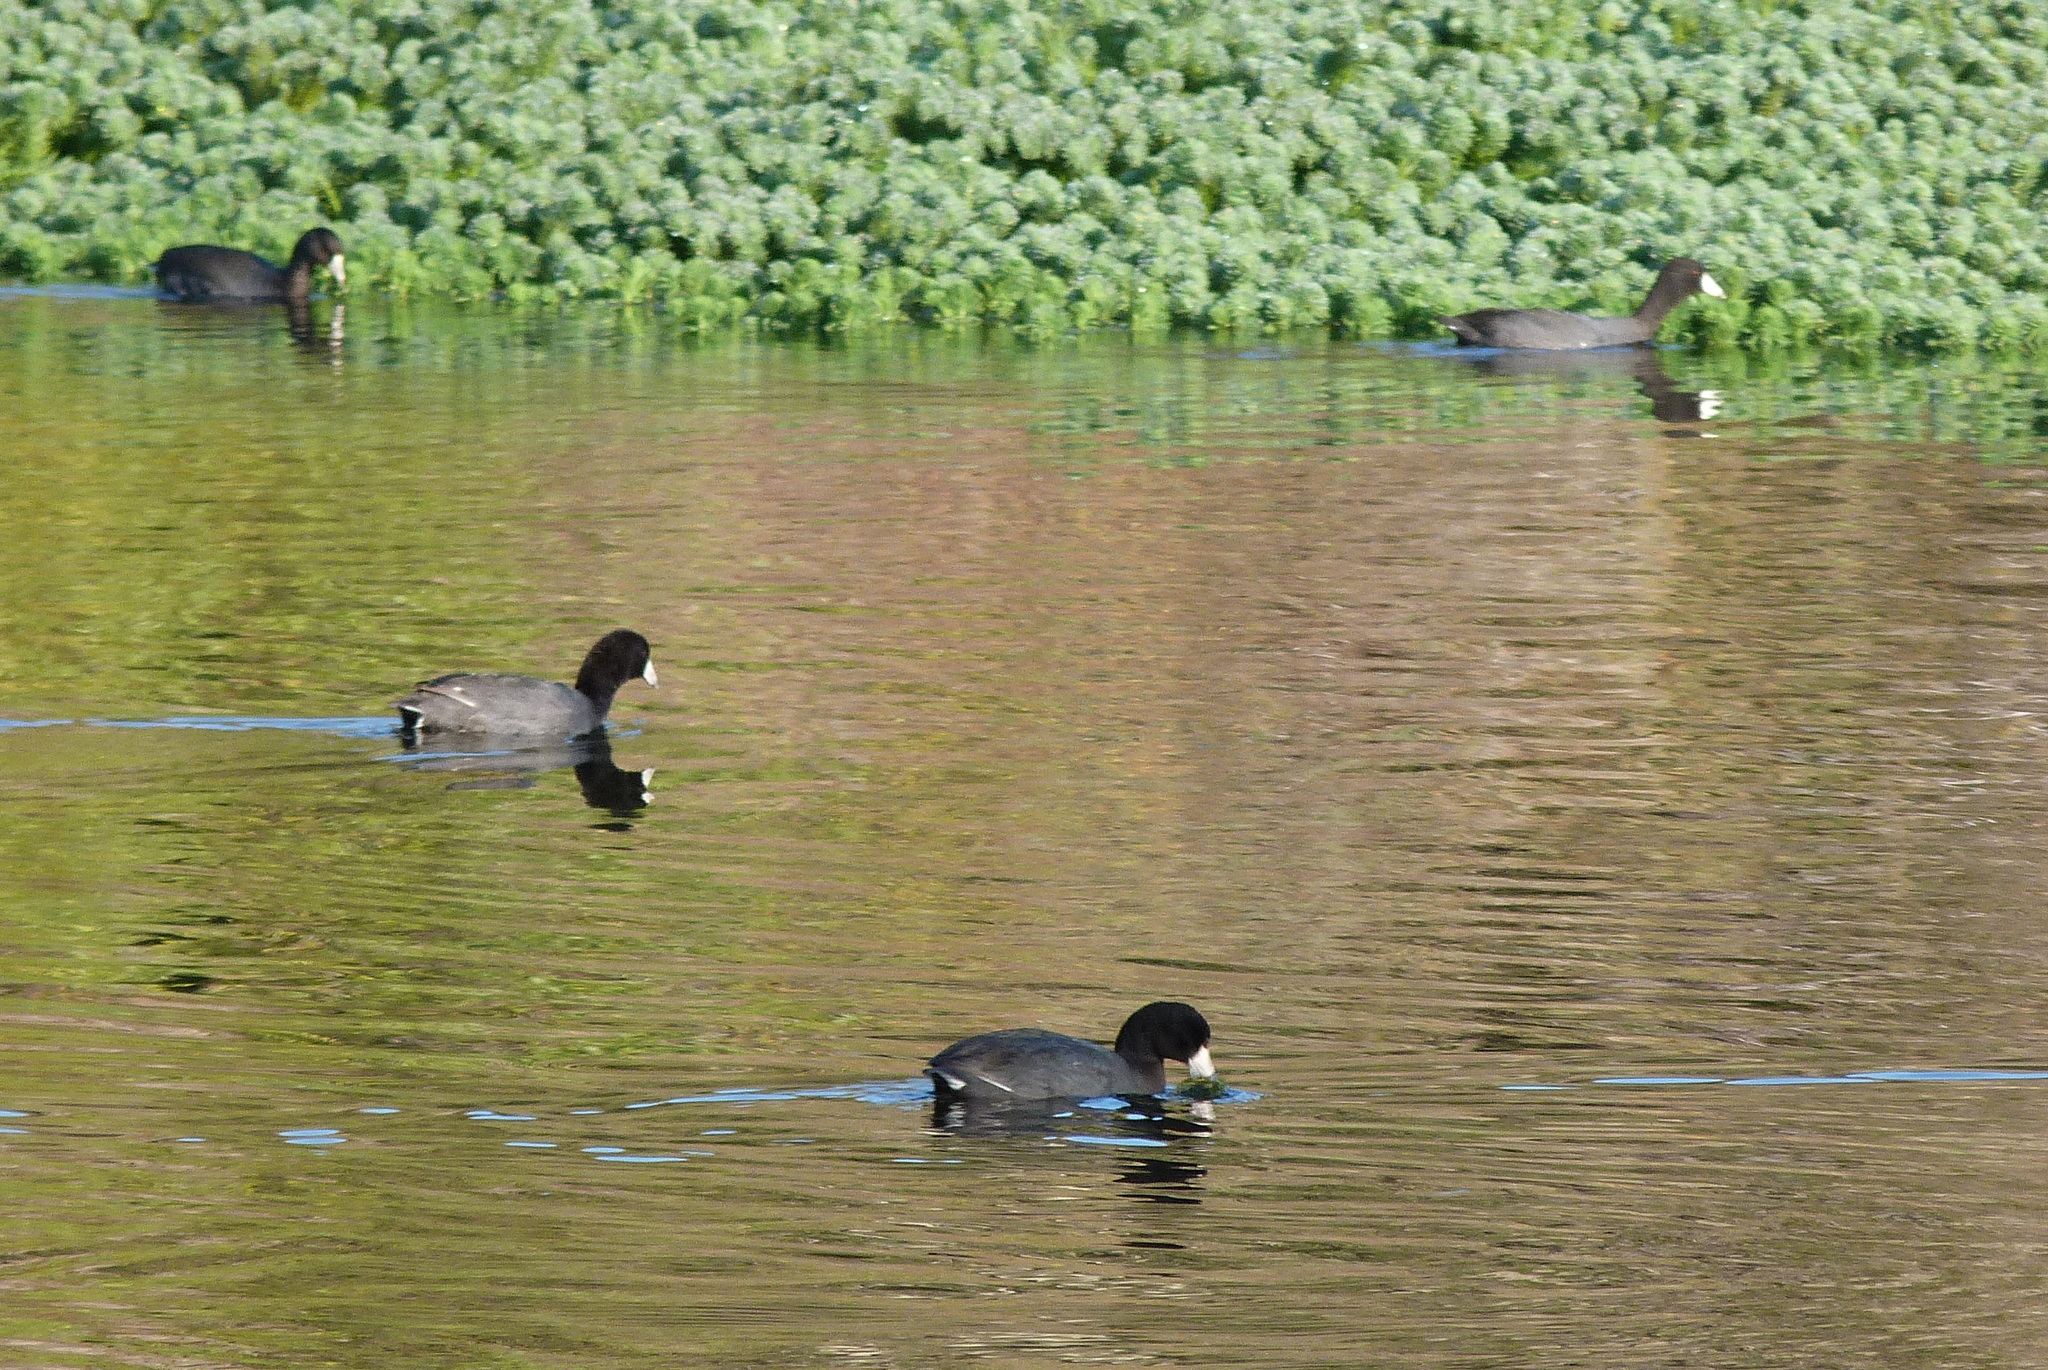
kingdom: Animalia
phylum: Chordata
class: Aves
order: Gruiformes
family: Rallidae
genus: Fulica
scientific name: Fulica americana
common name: American coot
